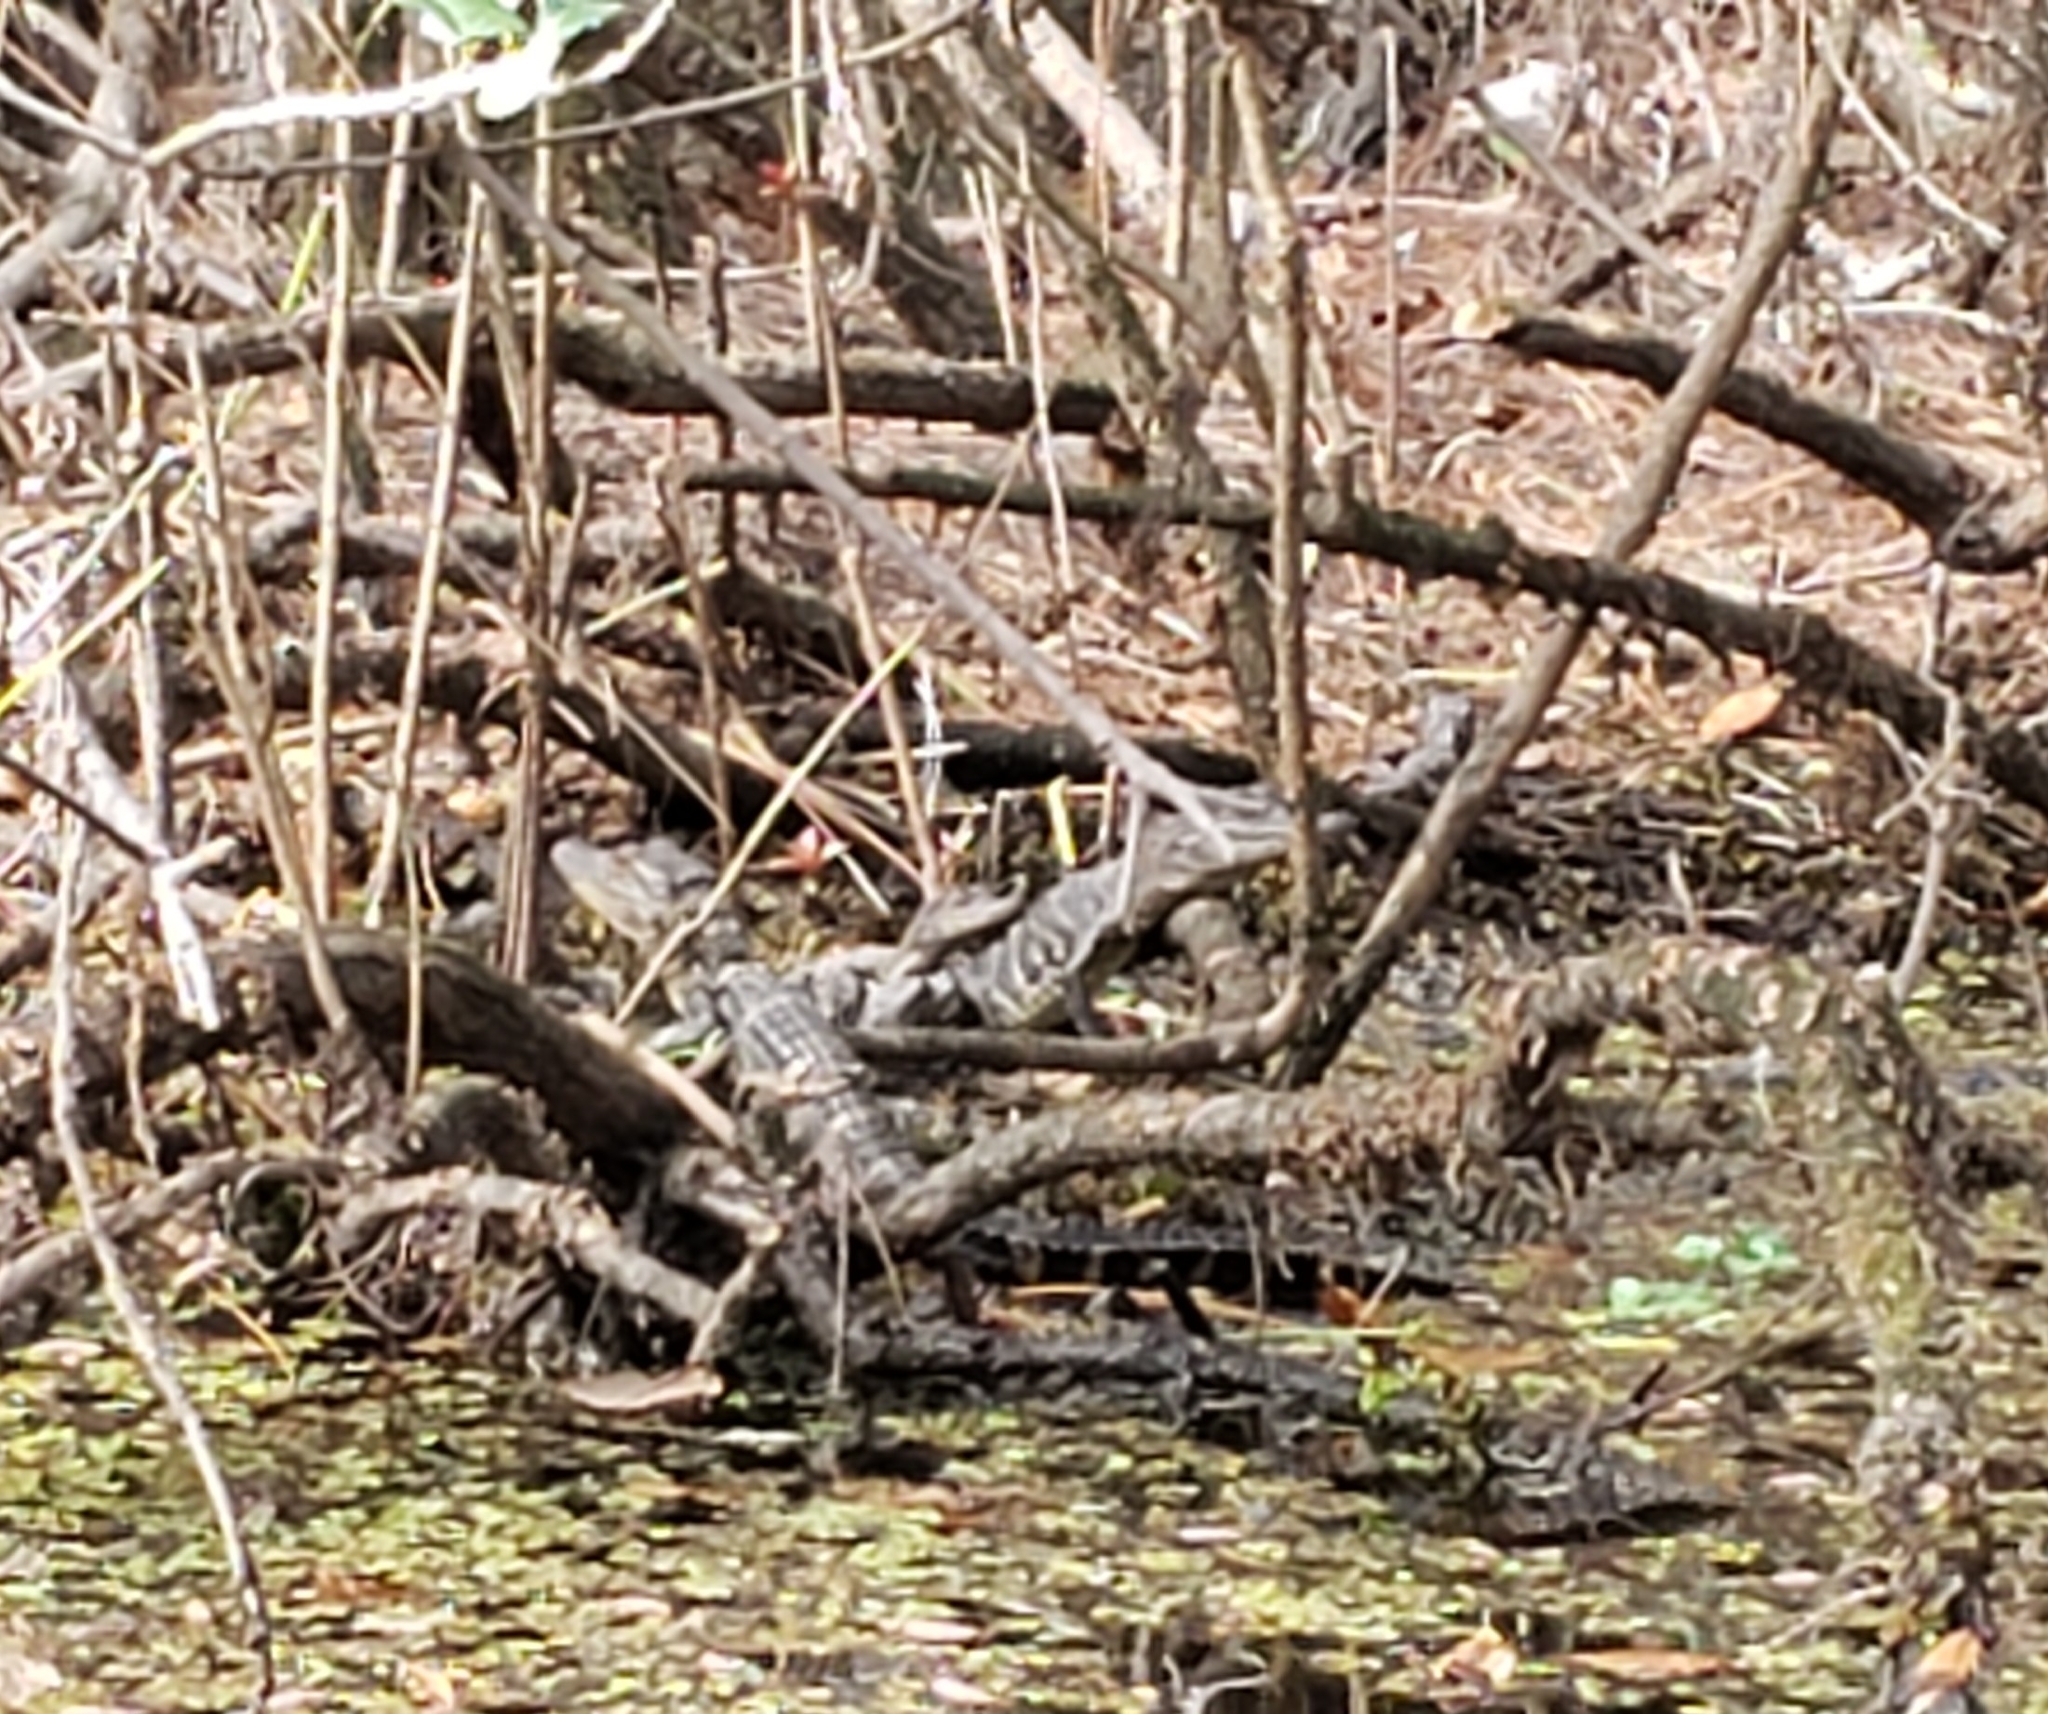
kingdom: Animalia
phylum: Chordata
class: Crocodylia
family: Alligatoridae
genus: Alligator
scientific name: Alligator mississippiensis
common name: American alligator
